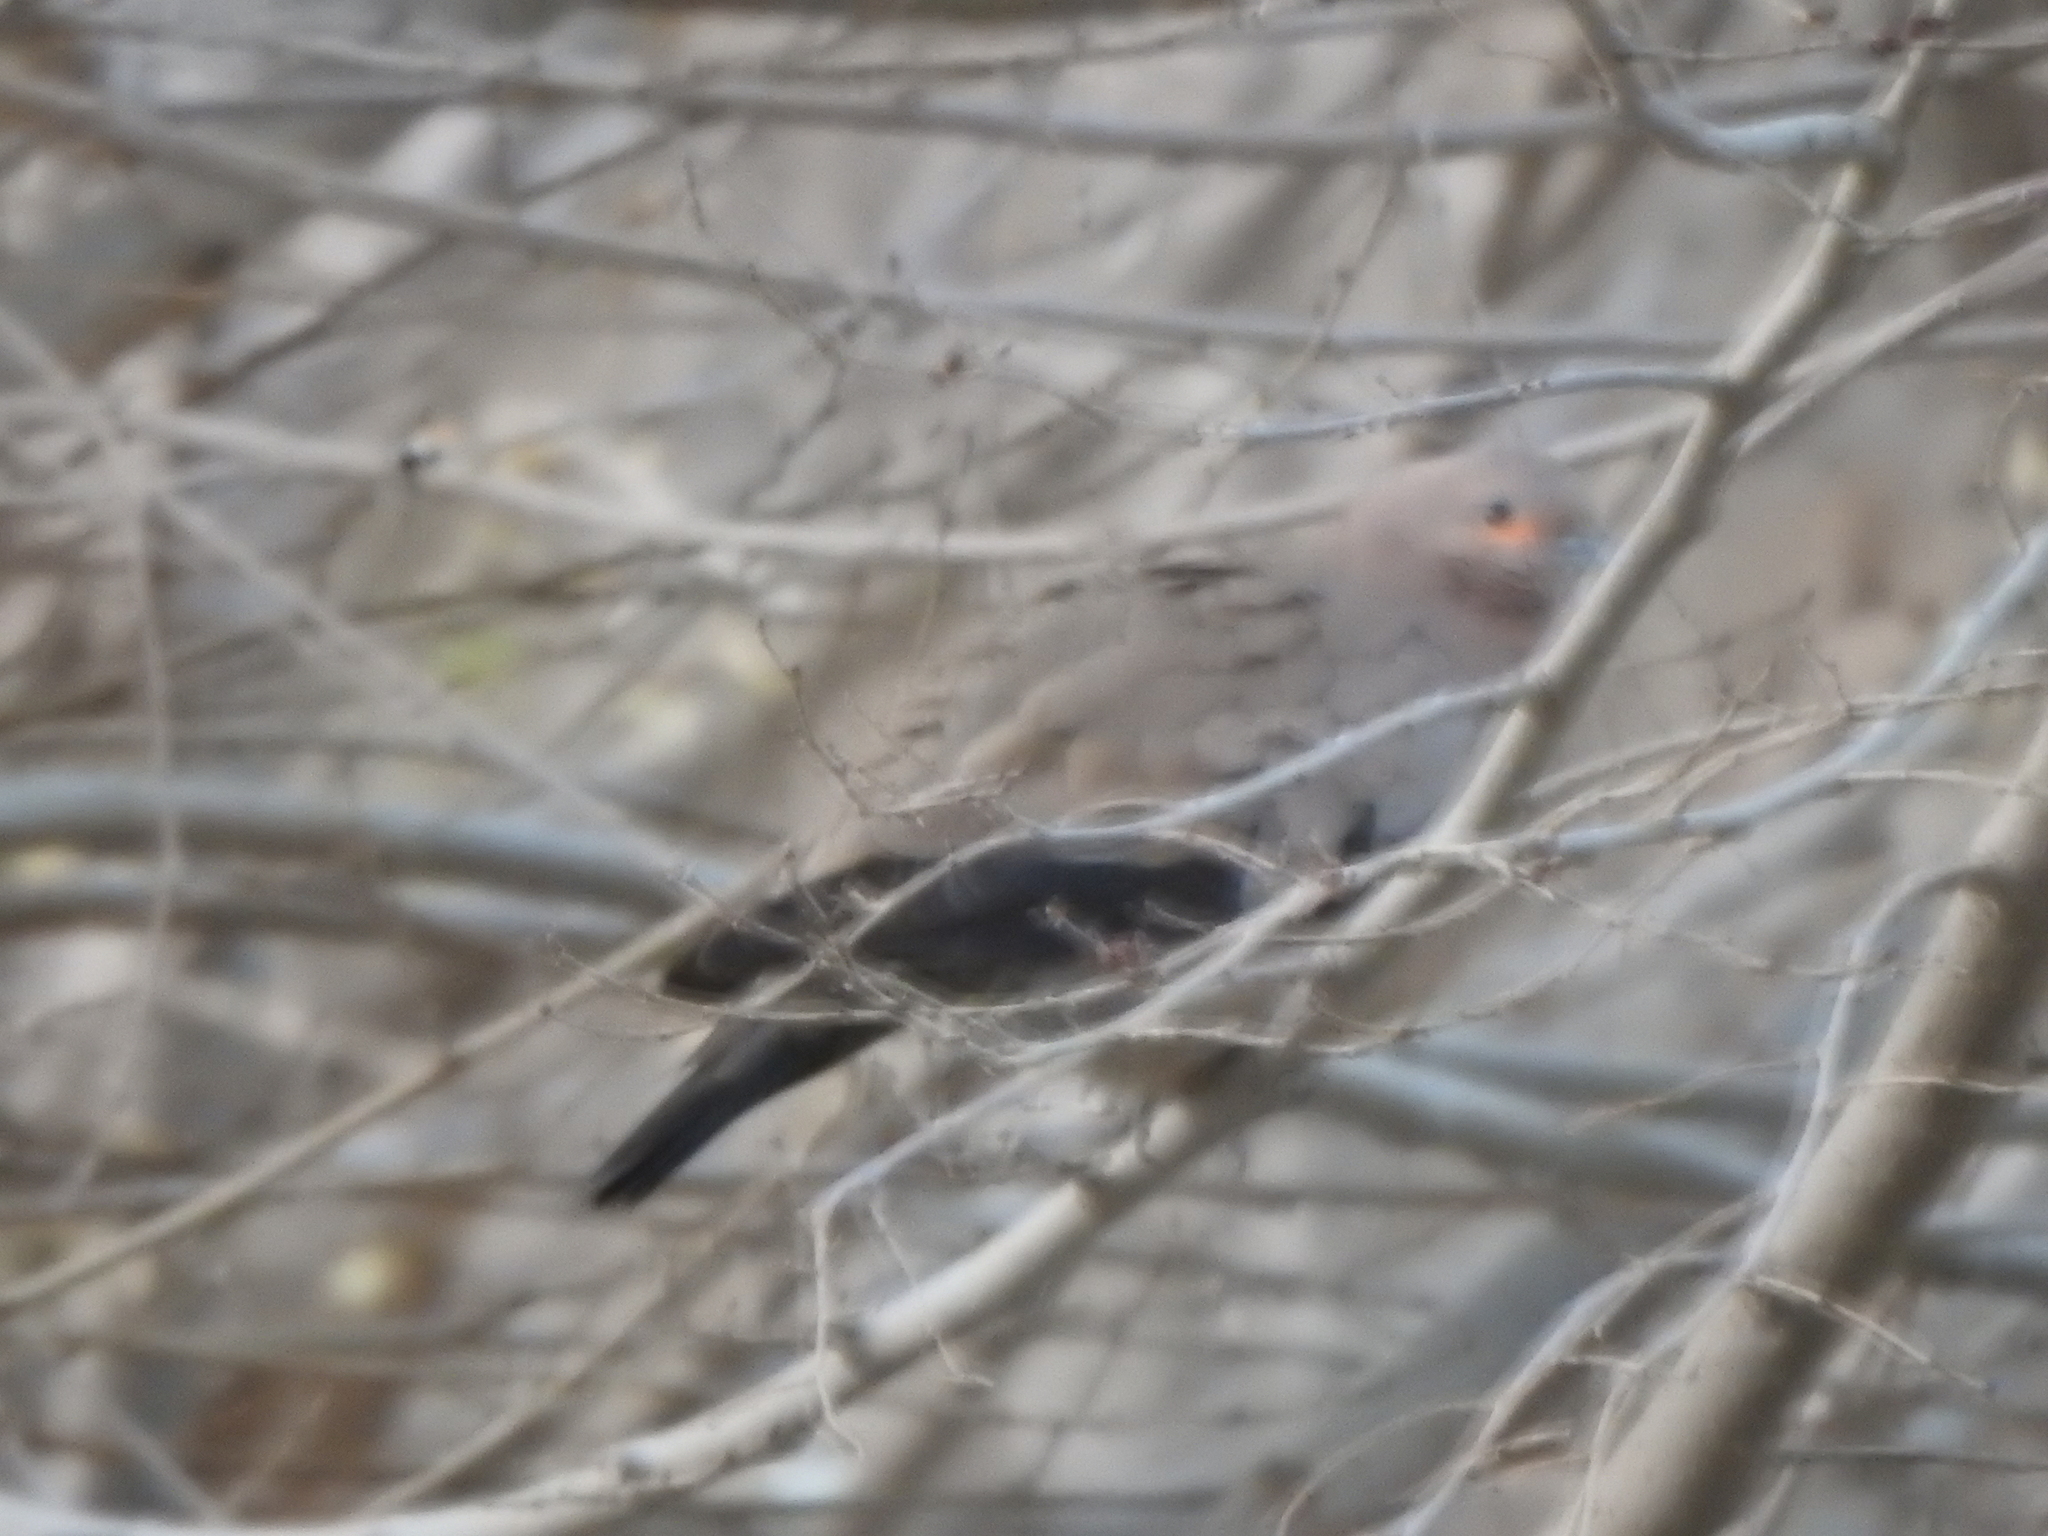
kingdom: Animalia
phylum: Chordata
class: Aves
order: Columbiformes
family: Columbidae
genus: Metriopelia
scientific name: Metriopelia melanoptera
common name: Black-winged ground dove
